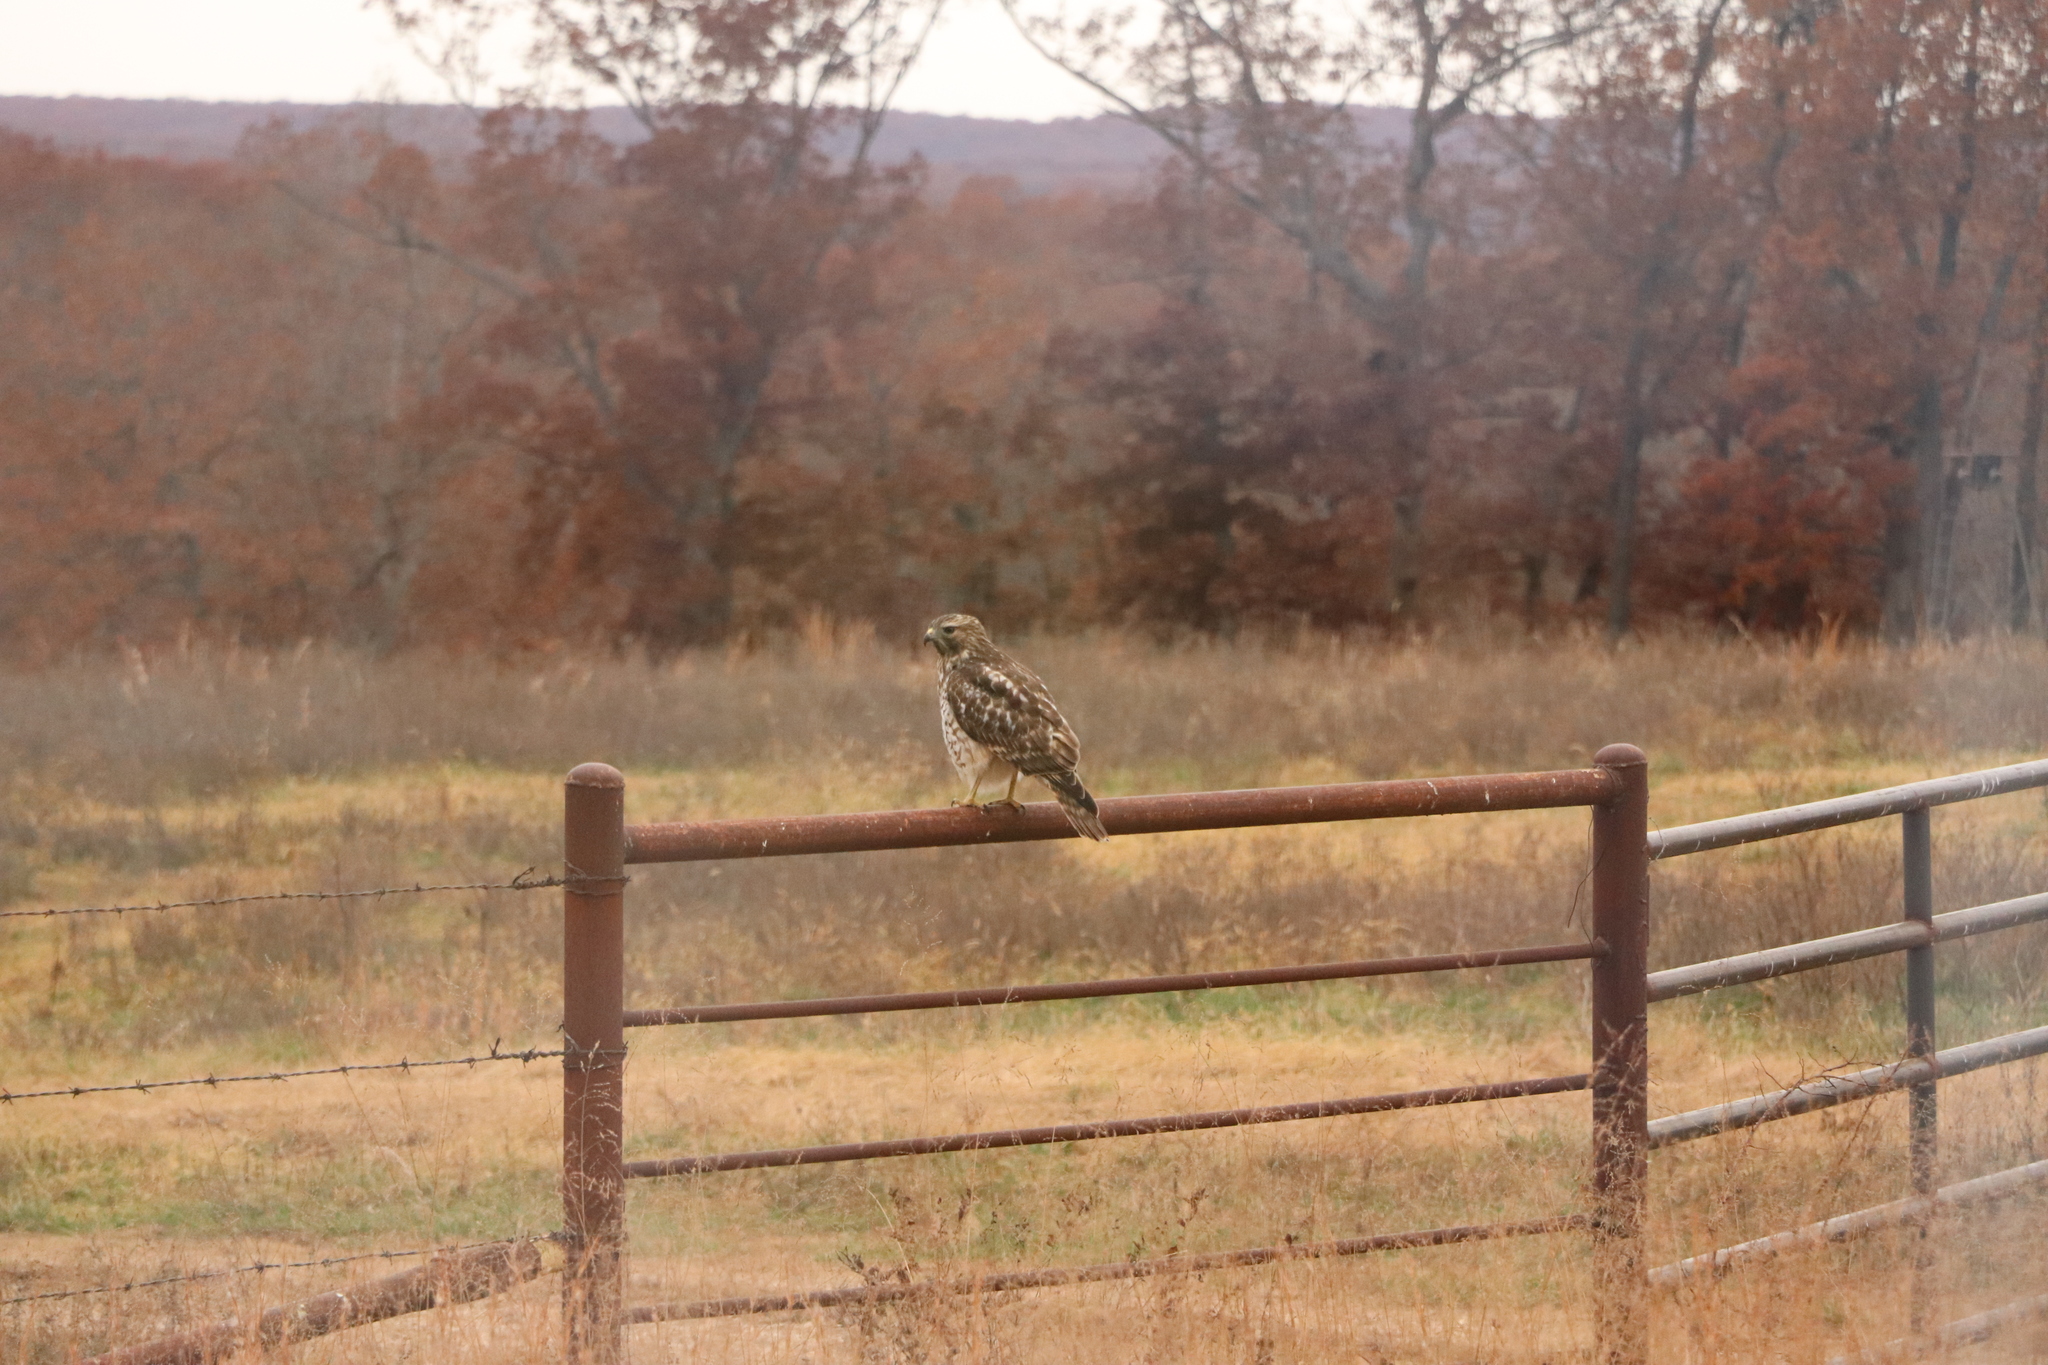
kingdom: Animalia
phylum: Chordata
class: Aves
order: Accipitriformes
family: Accipitridae
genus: Buteo
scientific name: Buteo lineatus
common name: Red-shouldered hawk
